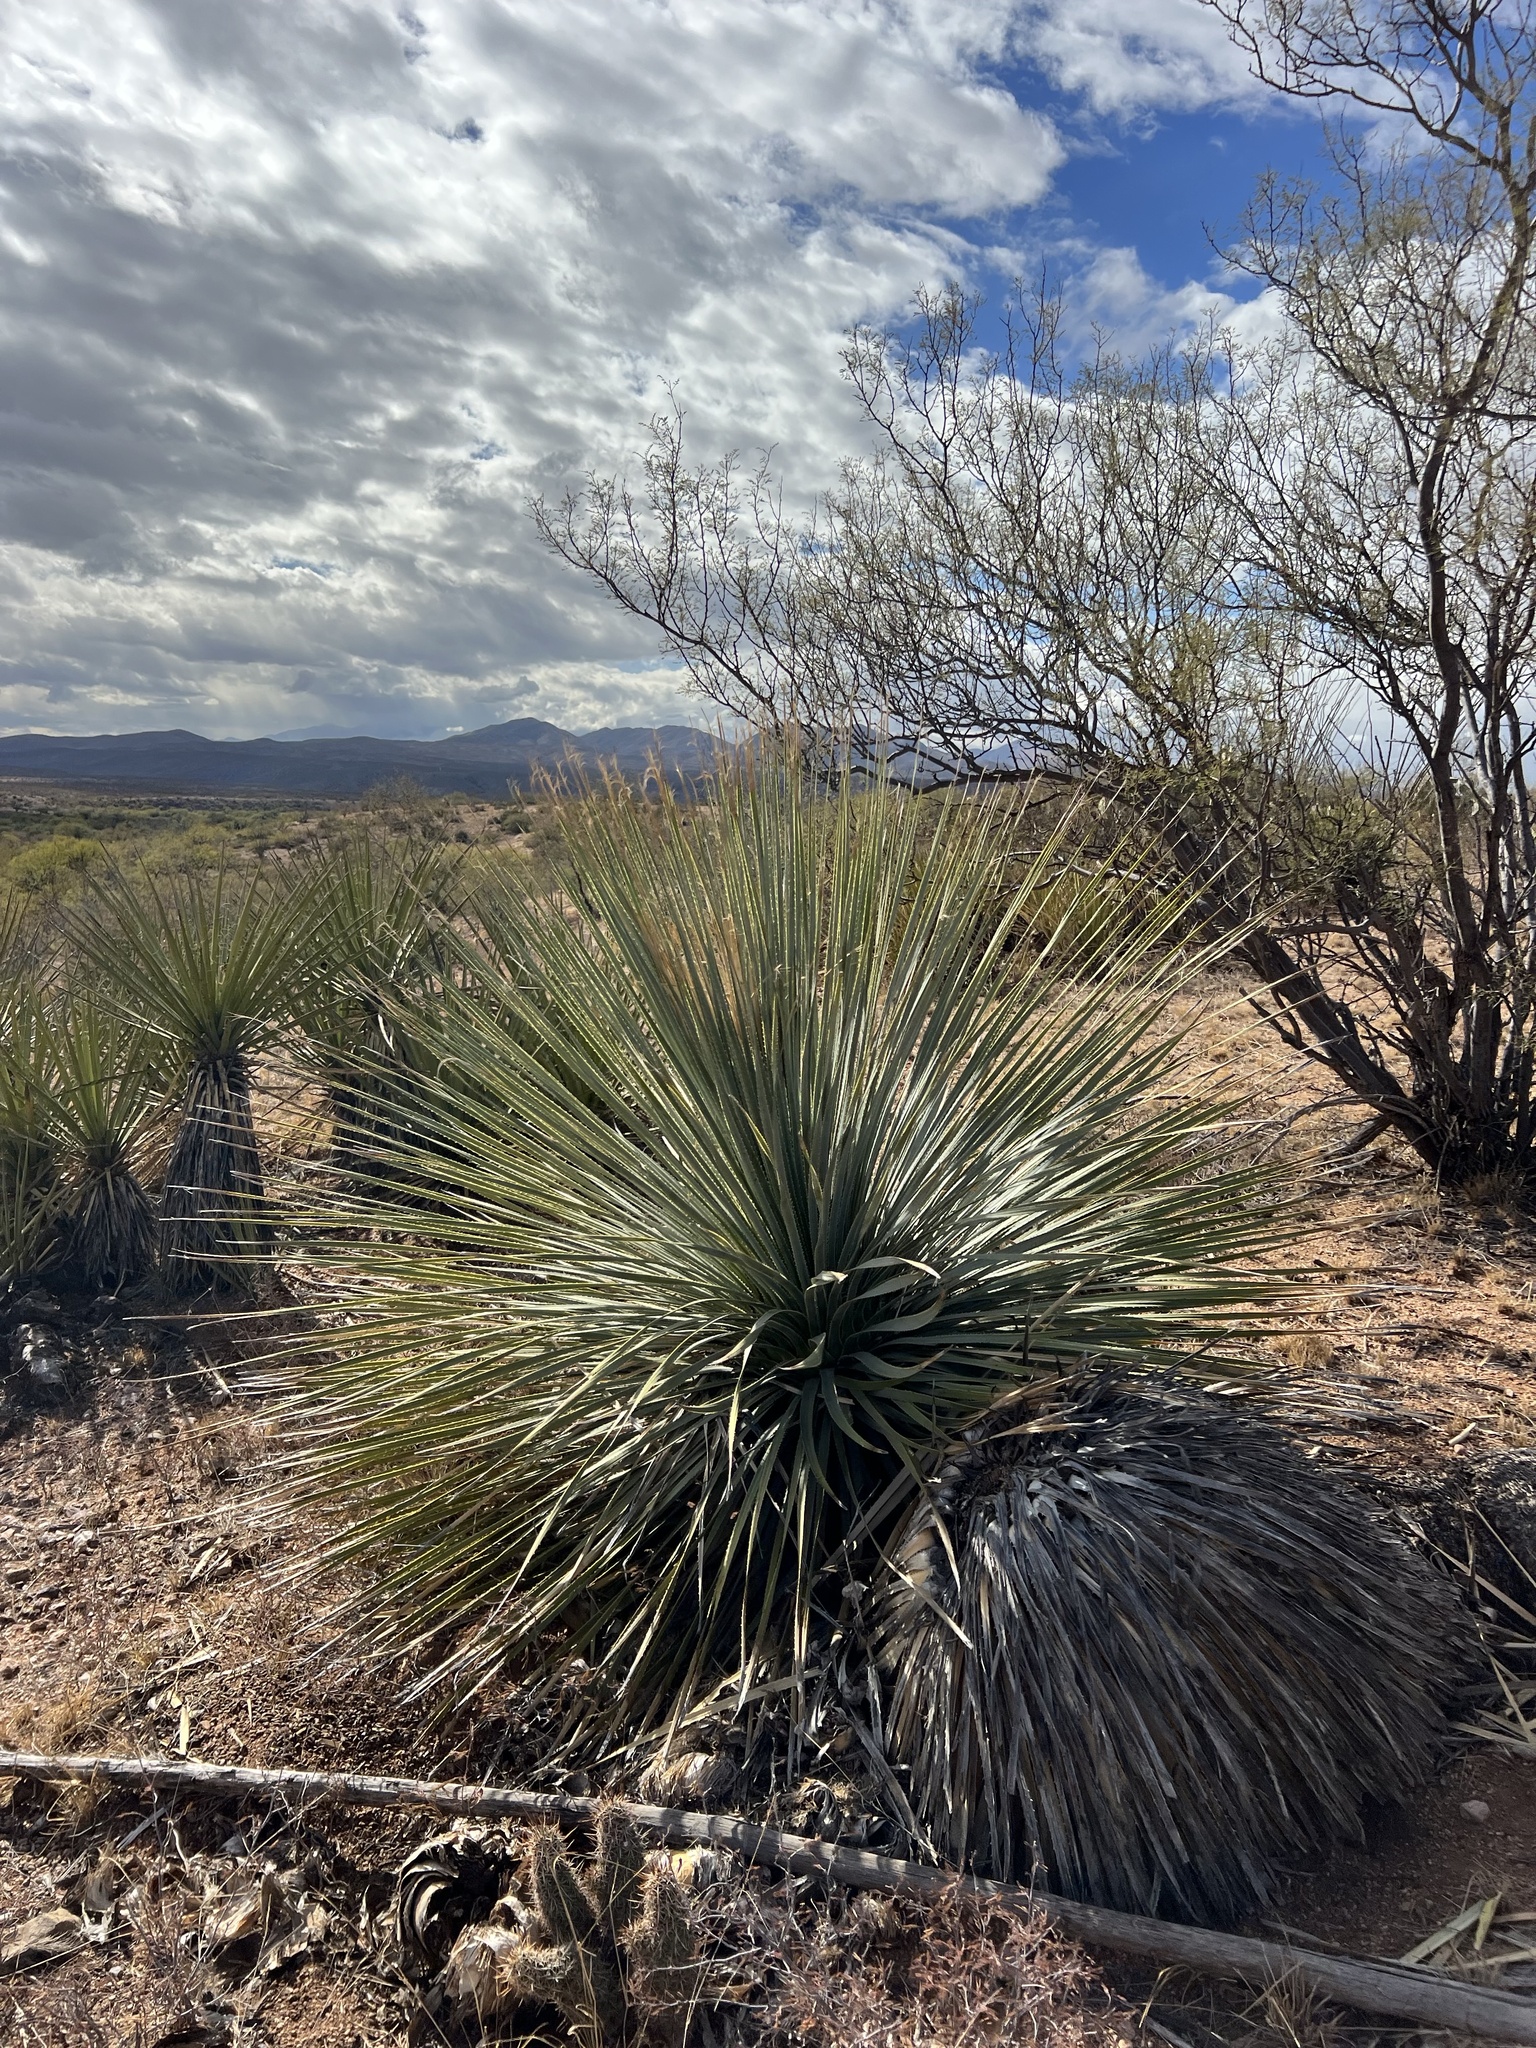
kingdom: Plantae
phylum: Tracheophyta
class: Liliopsida
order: Asparagales
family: Asparagaceae
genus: Dasylirion
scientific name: Dasylirion wheeleri
